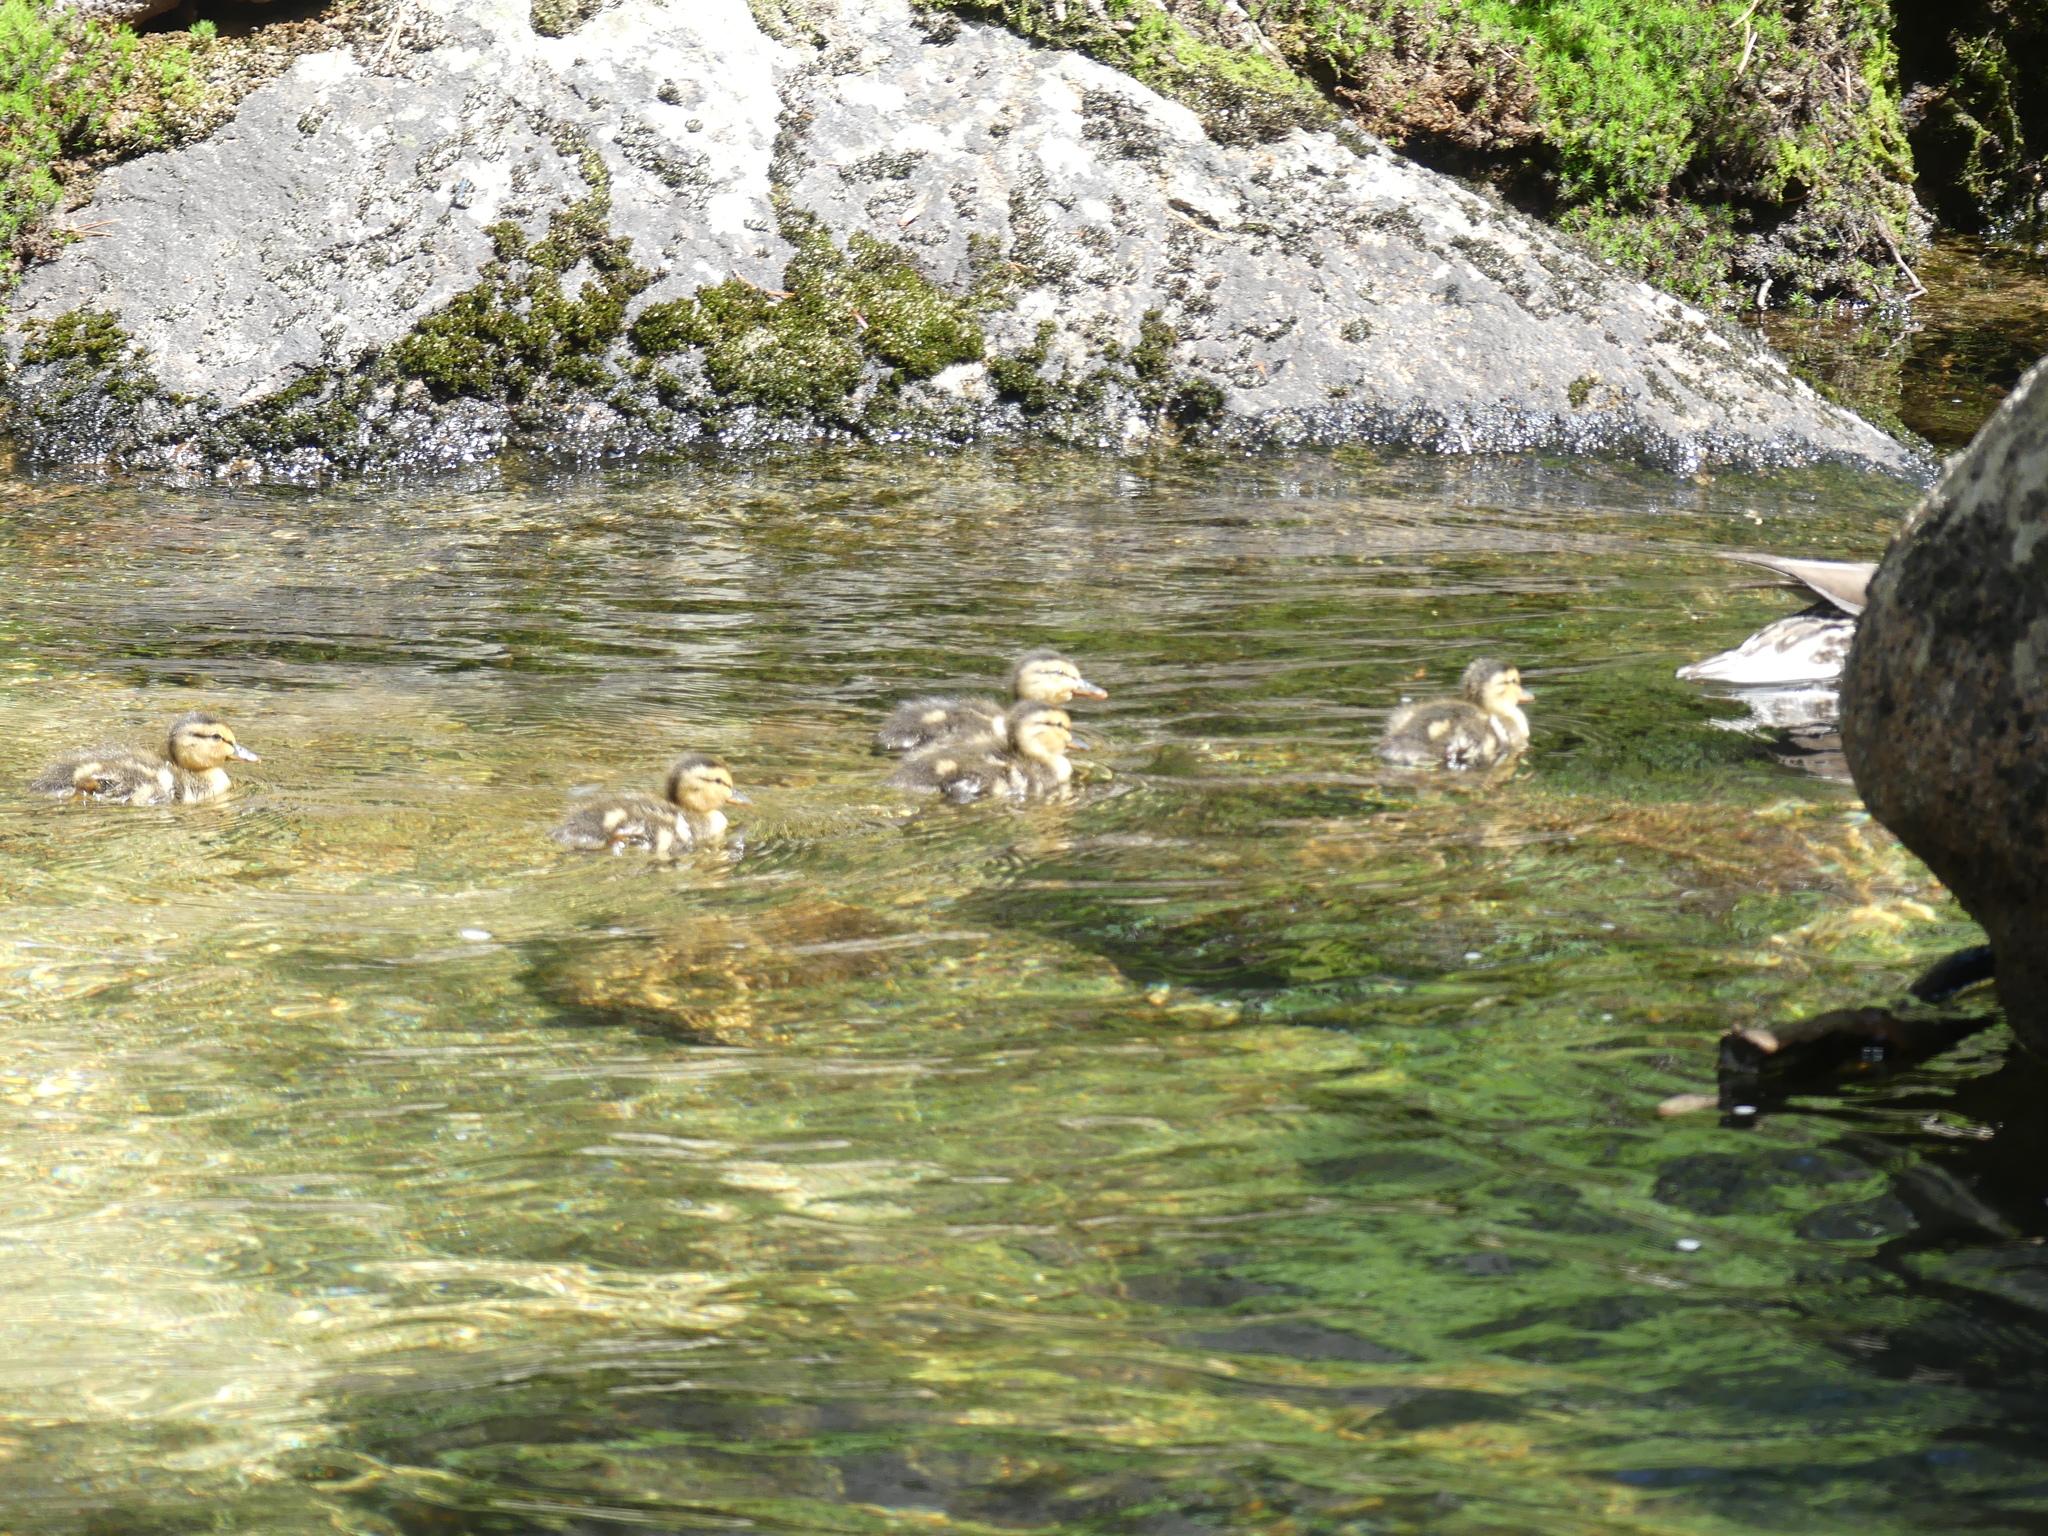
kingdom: Animalia
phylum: Chordata
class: Aves
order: Anseriformes
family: Anatidae
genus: Anas
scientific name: Anas platyrhynchos
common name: Mallard
